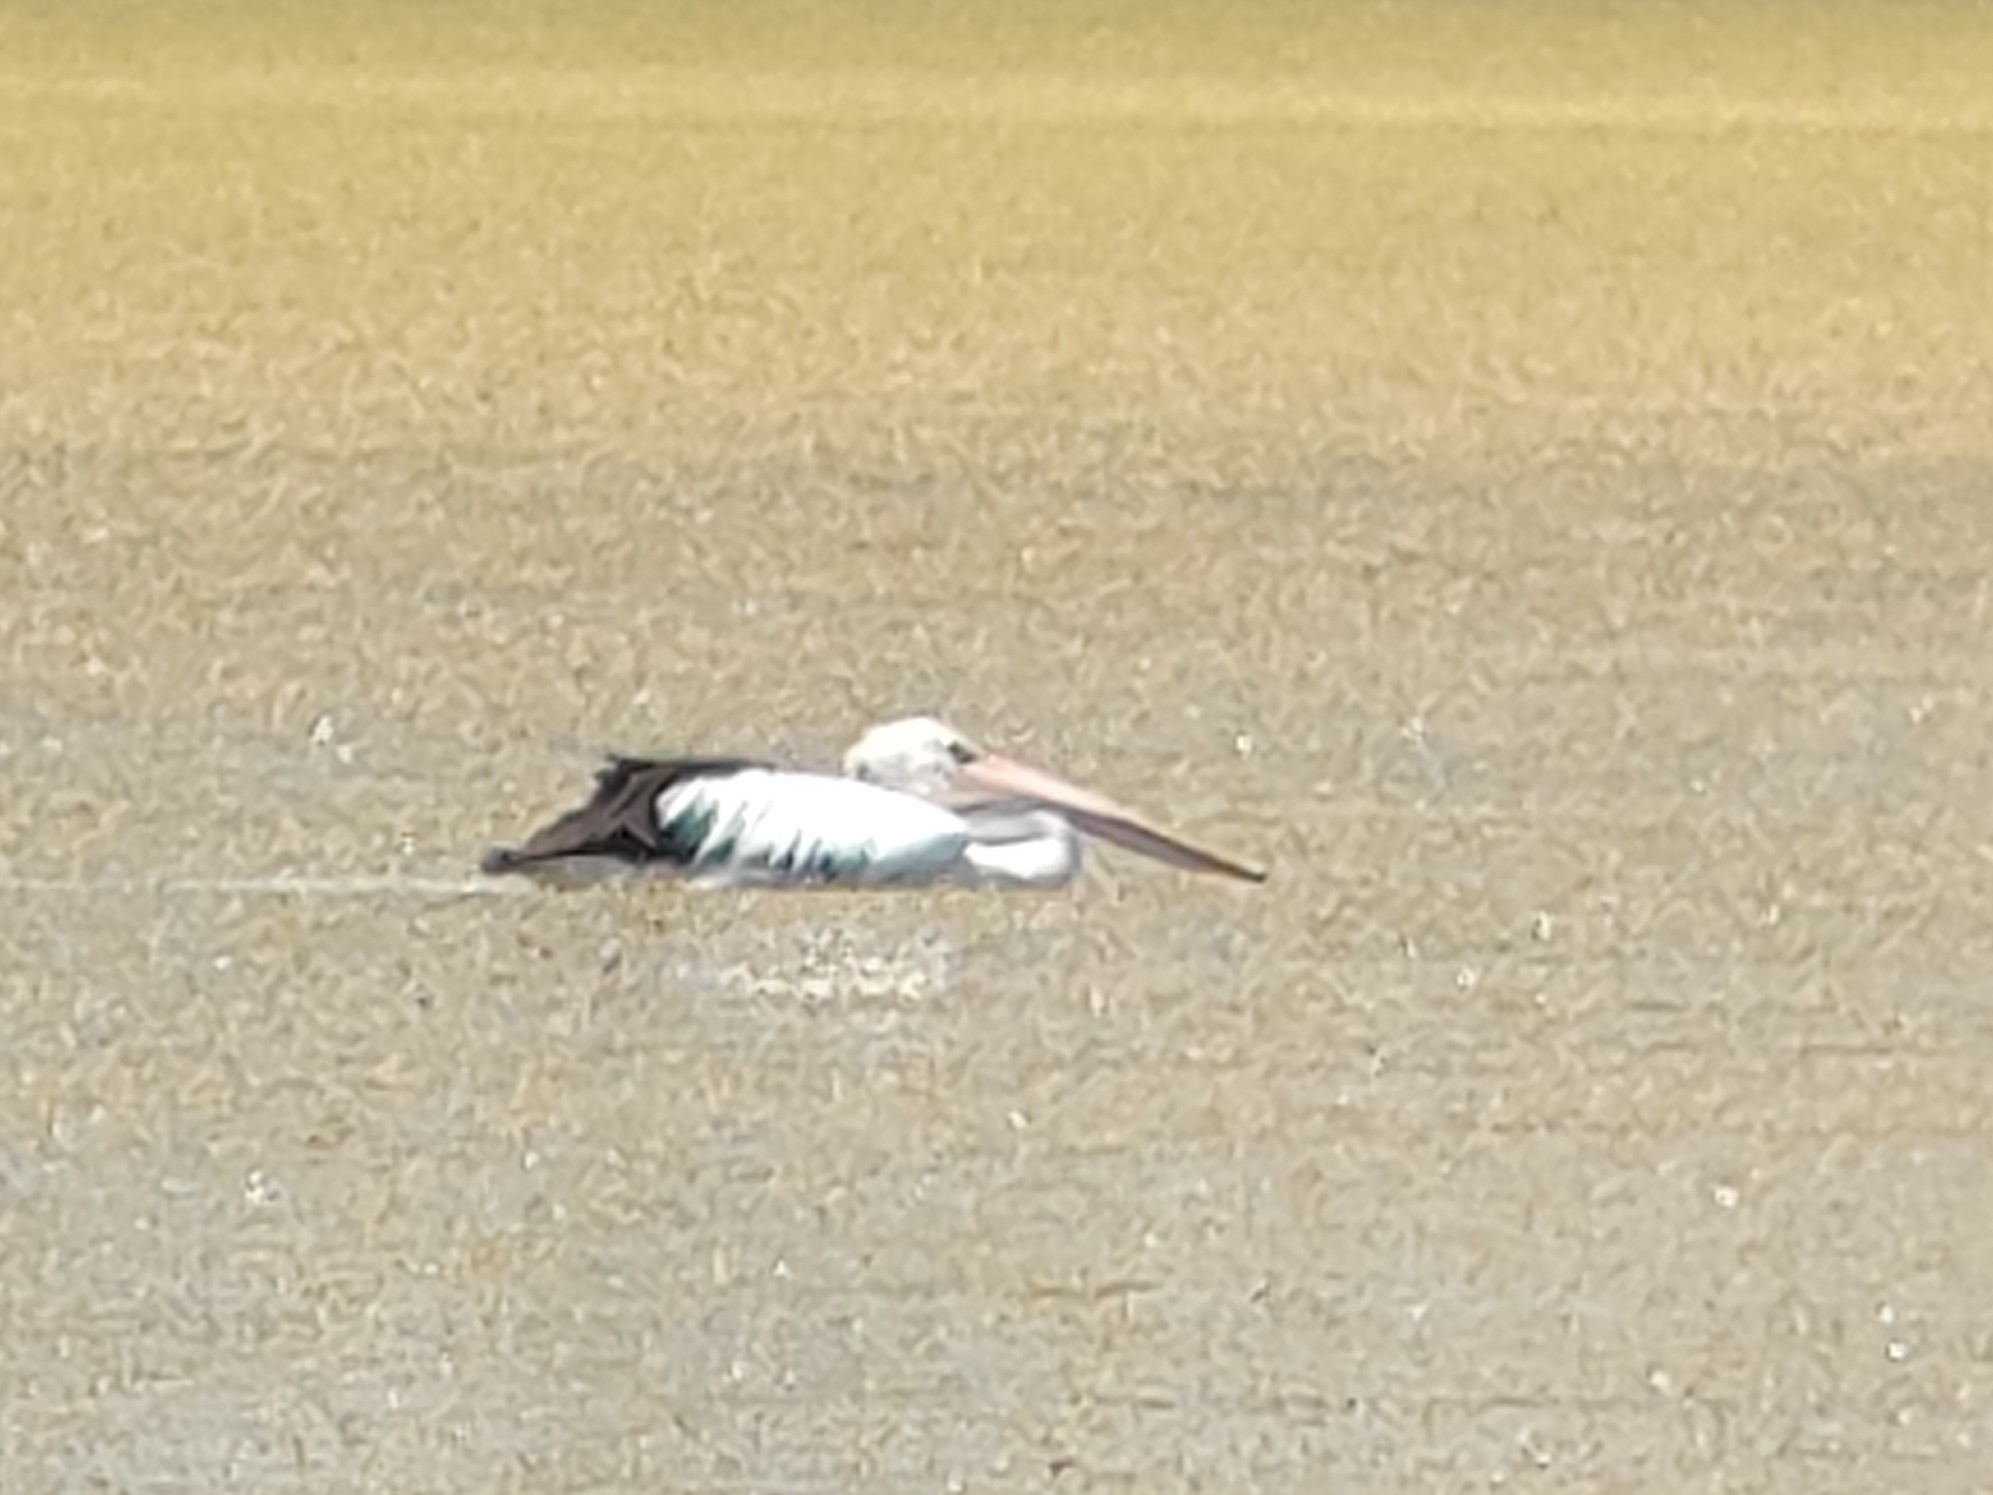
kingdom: Animalia
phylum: Chordata
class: Aves
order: Pelecaniformes
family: Pelecanidae
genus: Pelecanus
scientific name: Pelecanus conspicillatus
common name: Australian pelican
